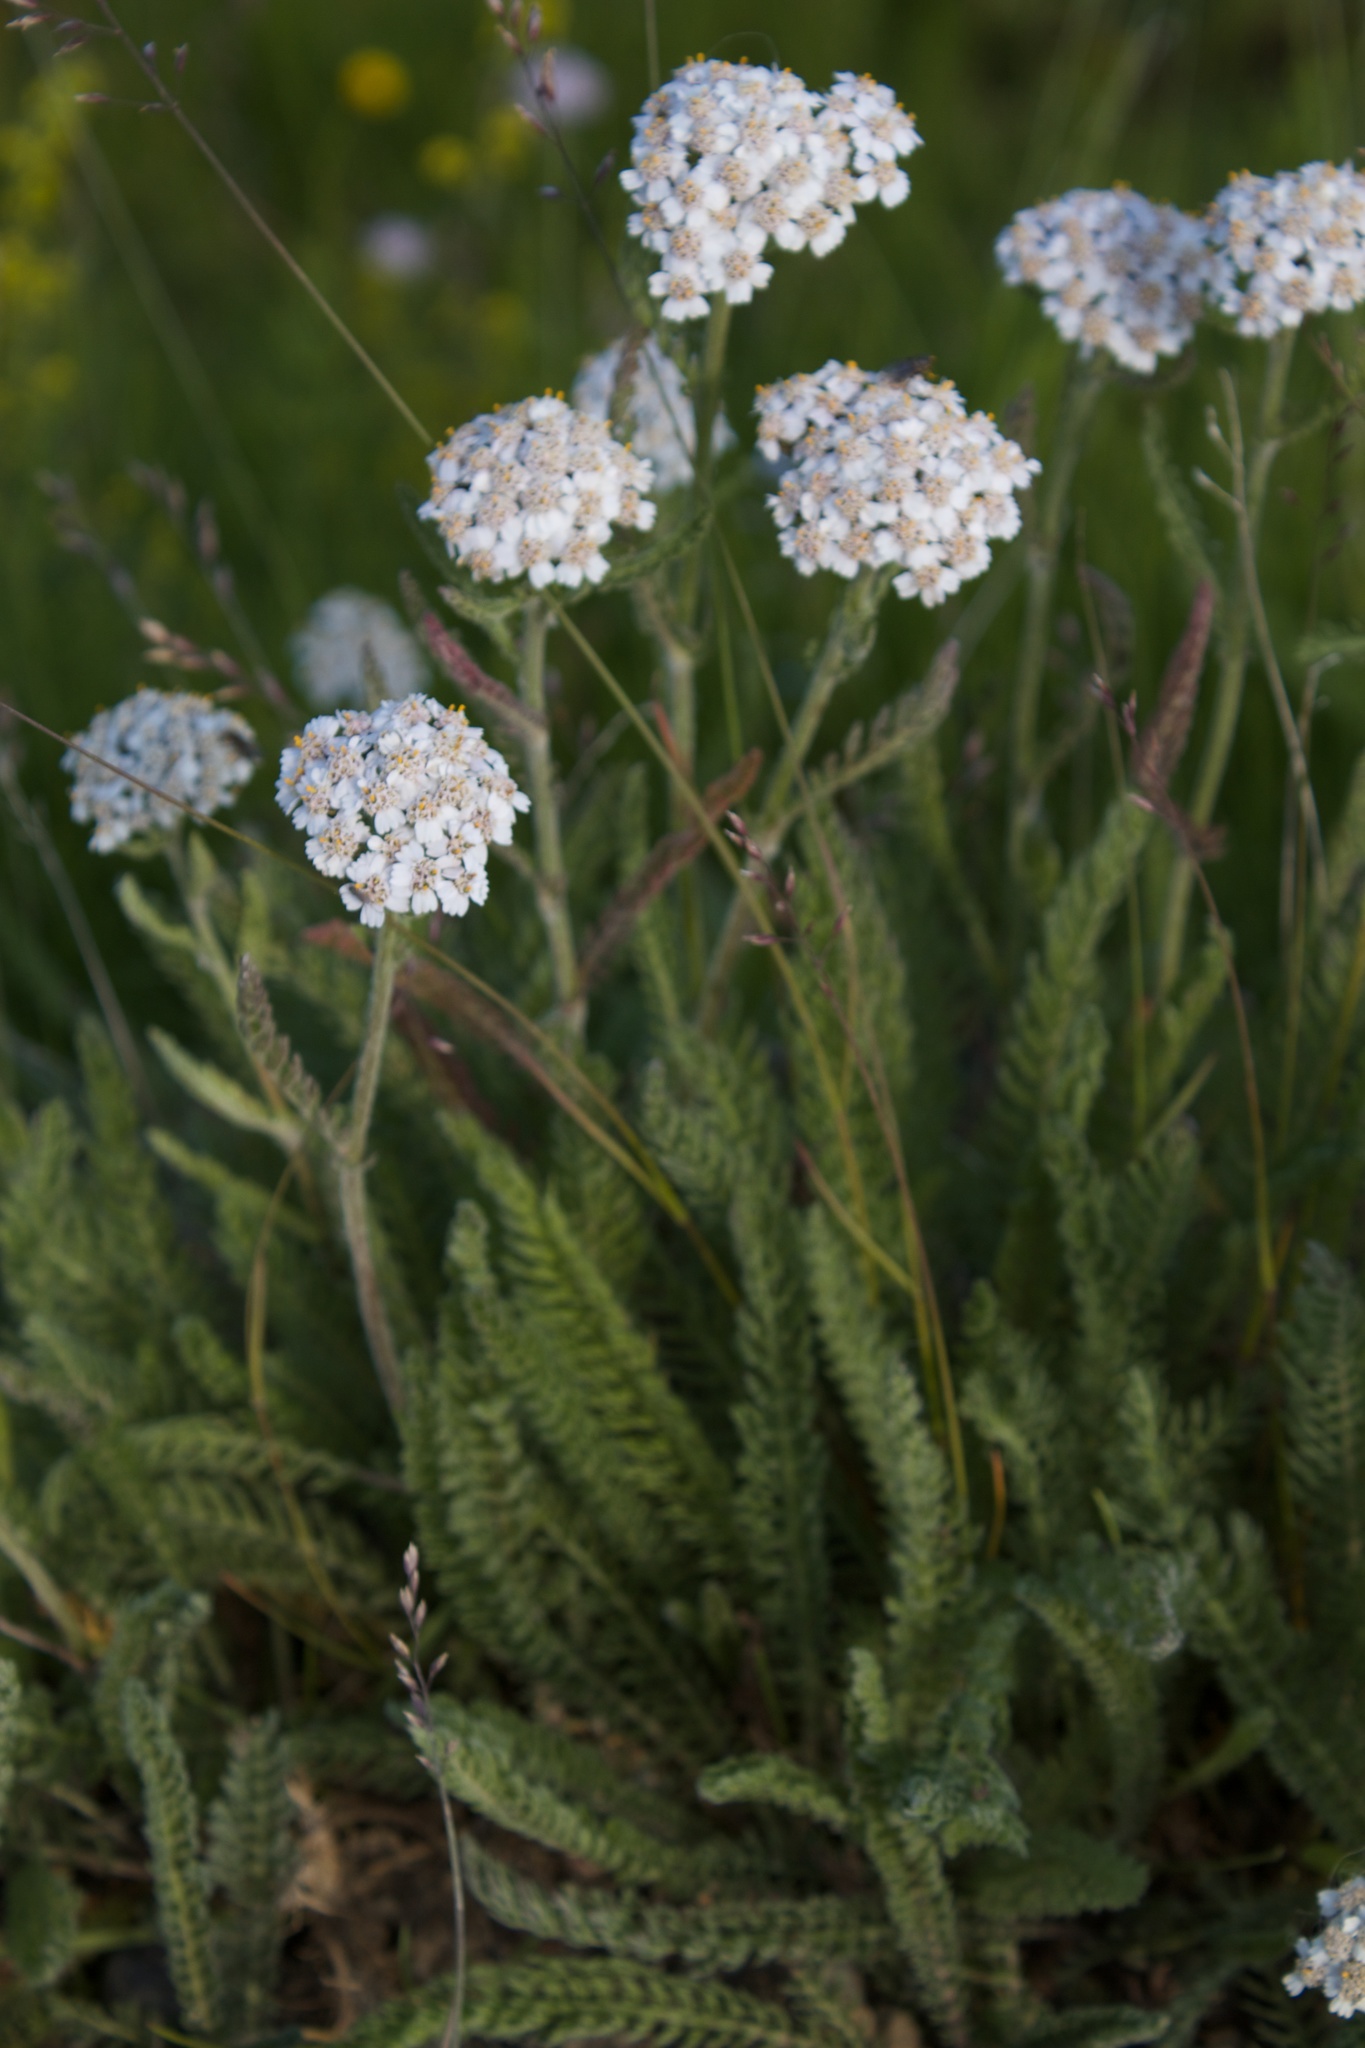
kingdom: Plantae
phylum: Tracheophyta
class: Magnoliopsida
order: Asterales
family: Asteraceae
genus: Achillea
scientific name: Achillea millefolium
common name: Yarrow
